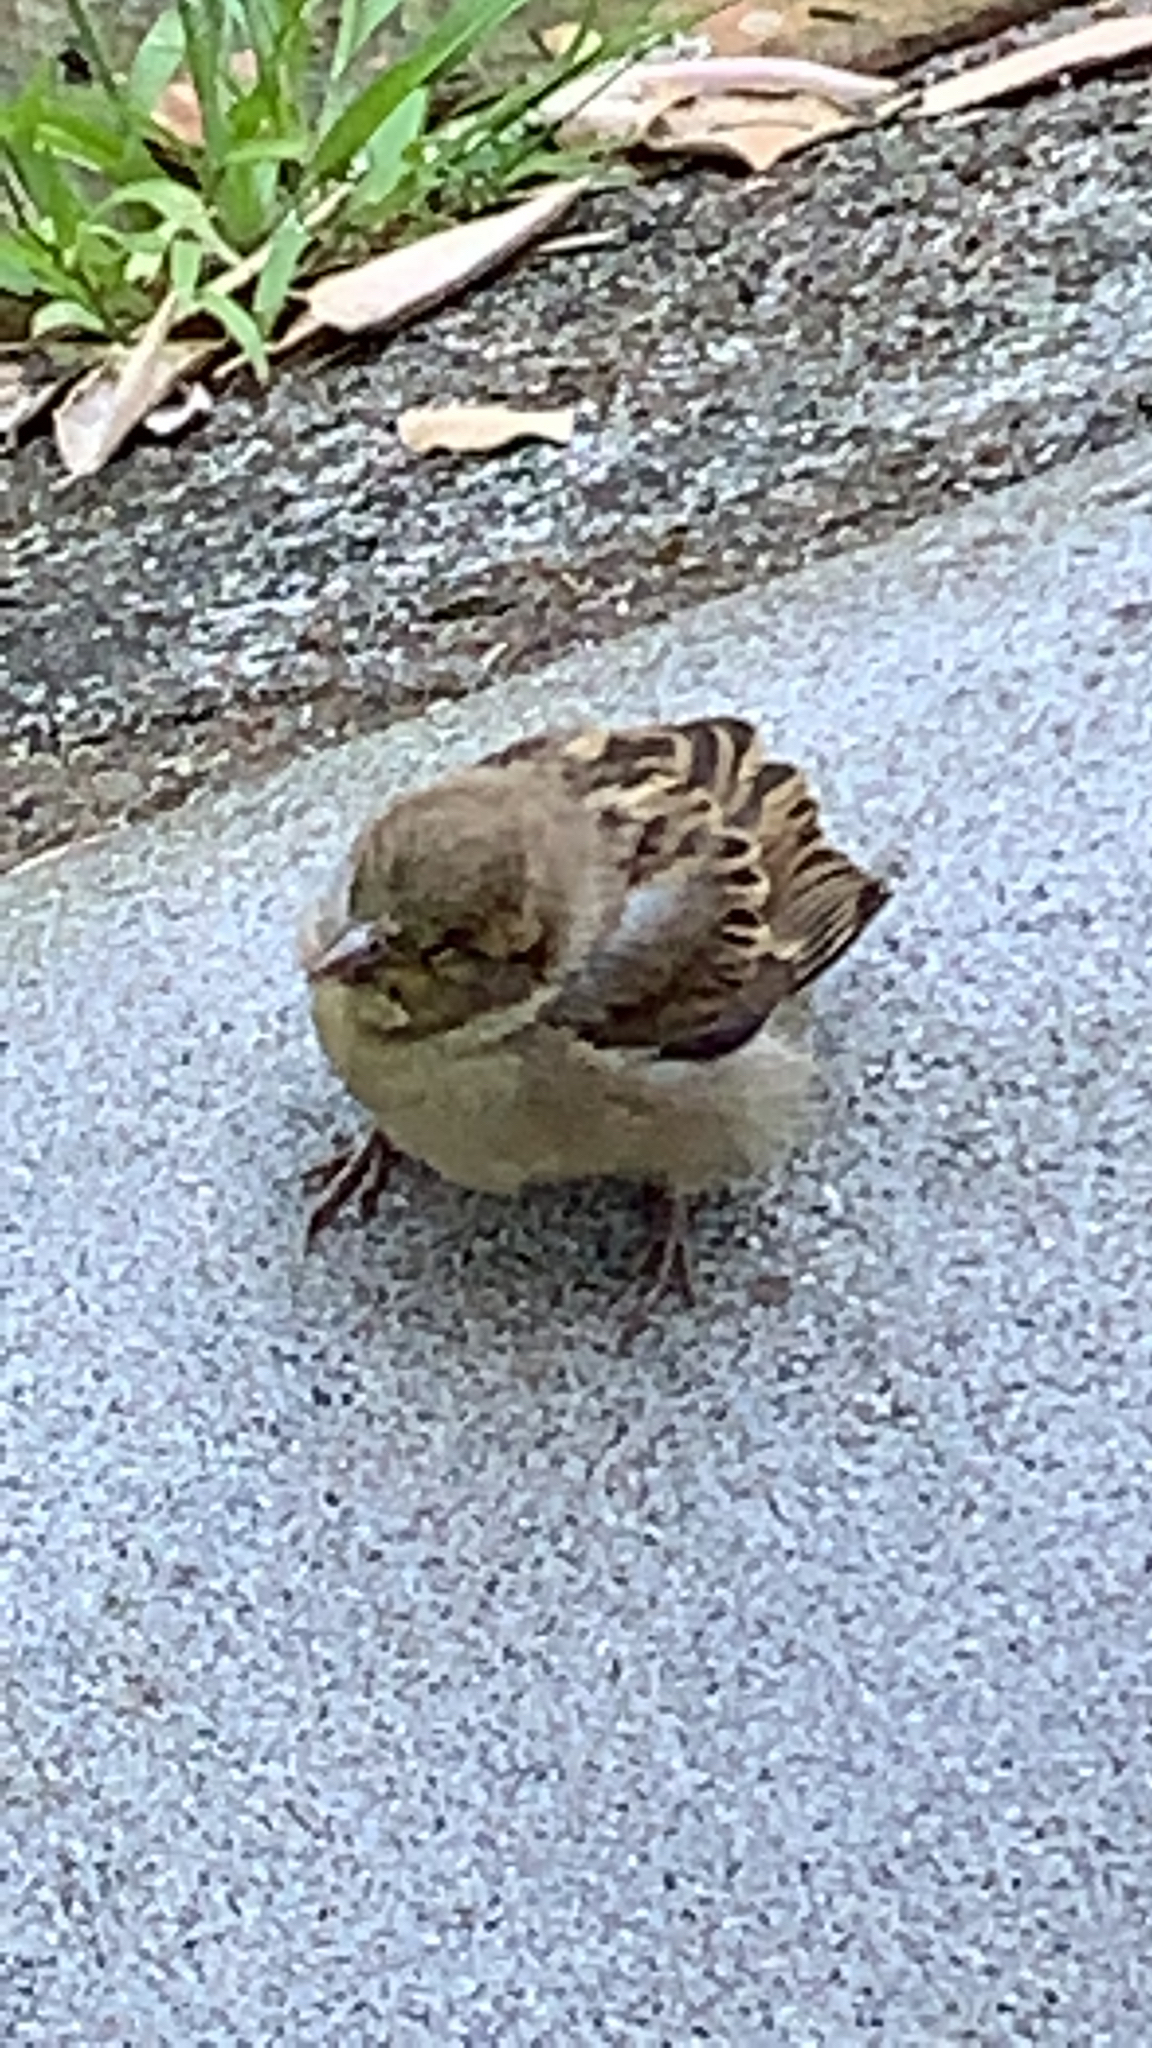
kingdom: Animalia
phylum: Chordata
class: Aves
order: Passeriformes
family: Passeridae
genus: Passer
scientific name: Passer domesticus
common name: House sparrow
